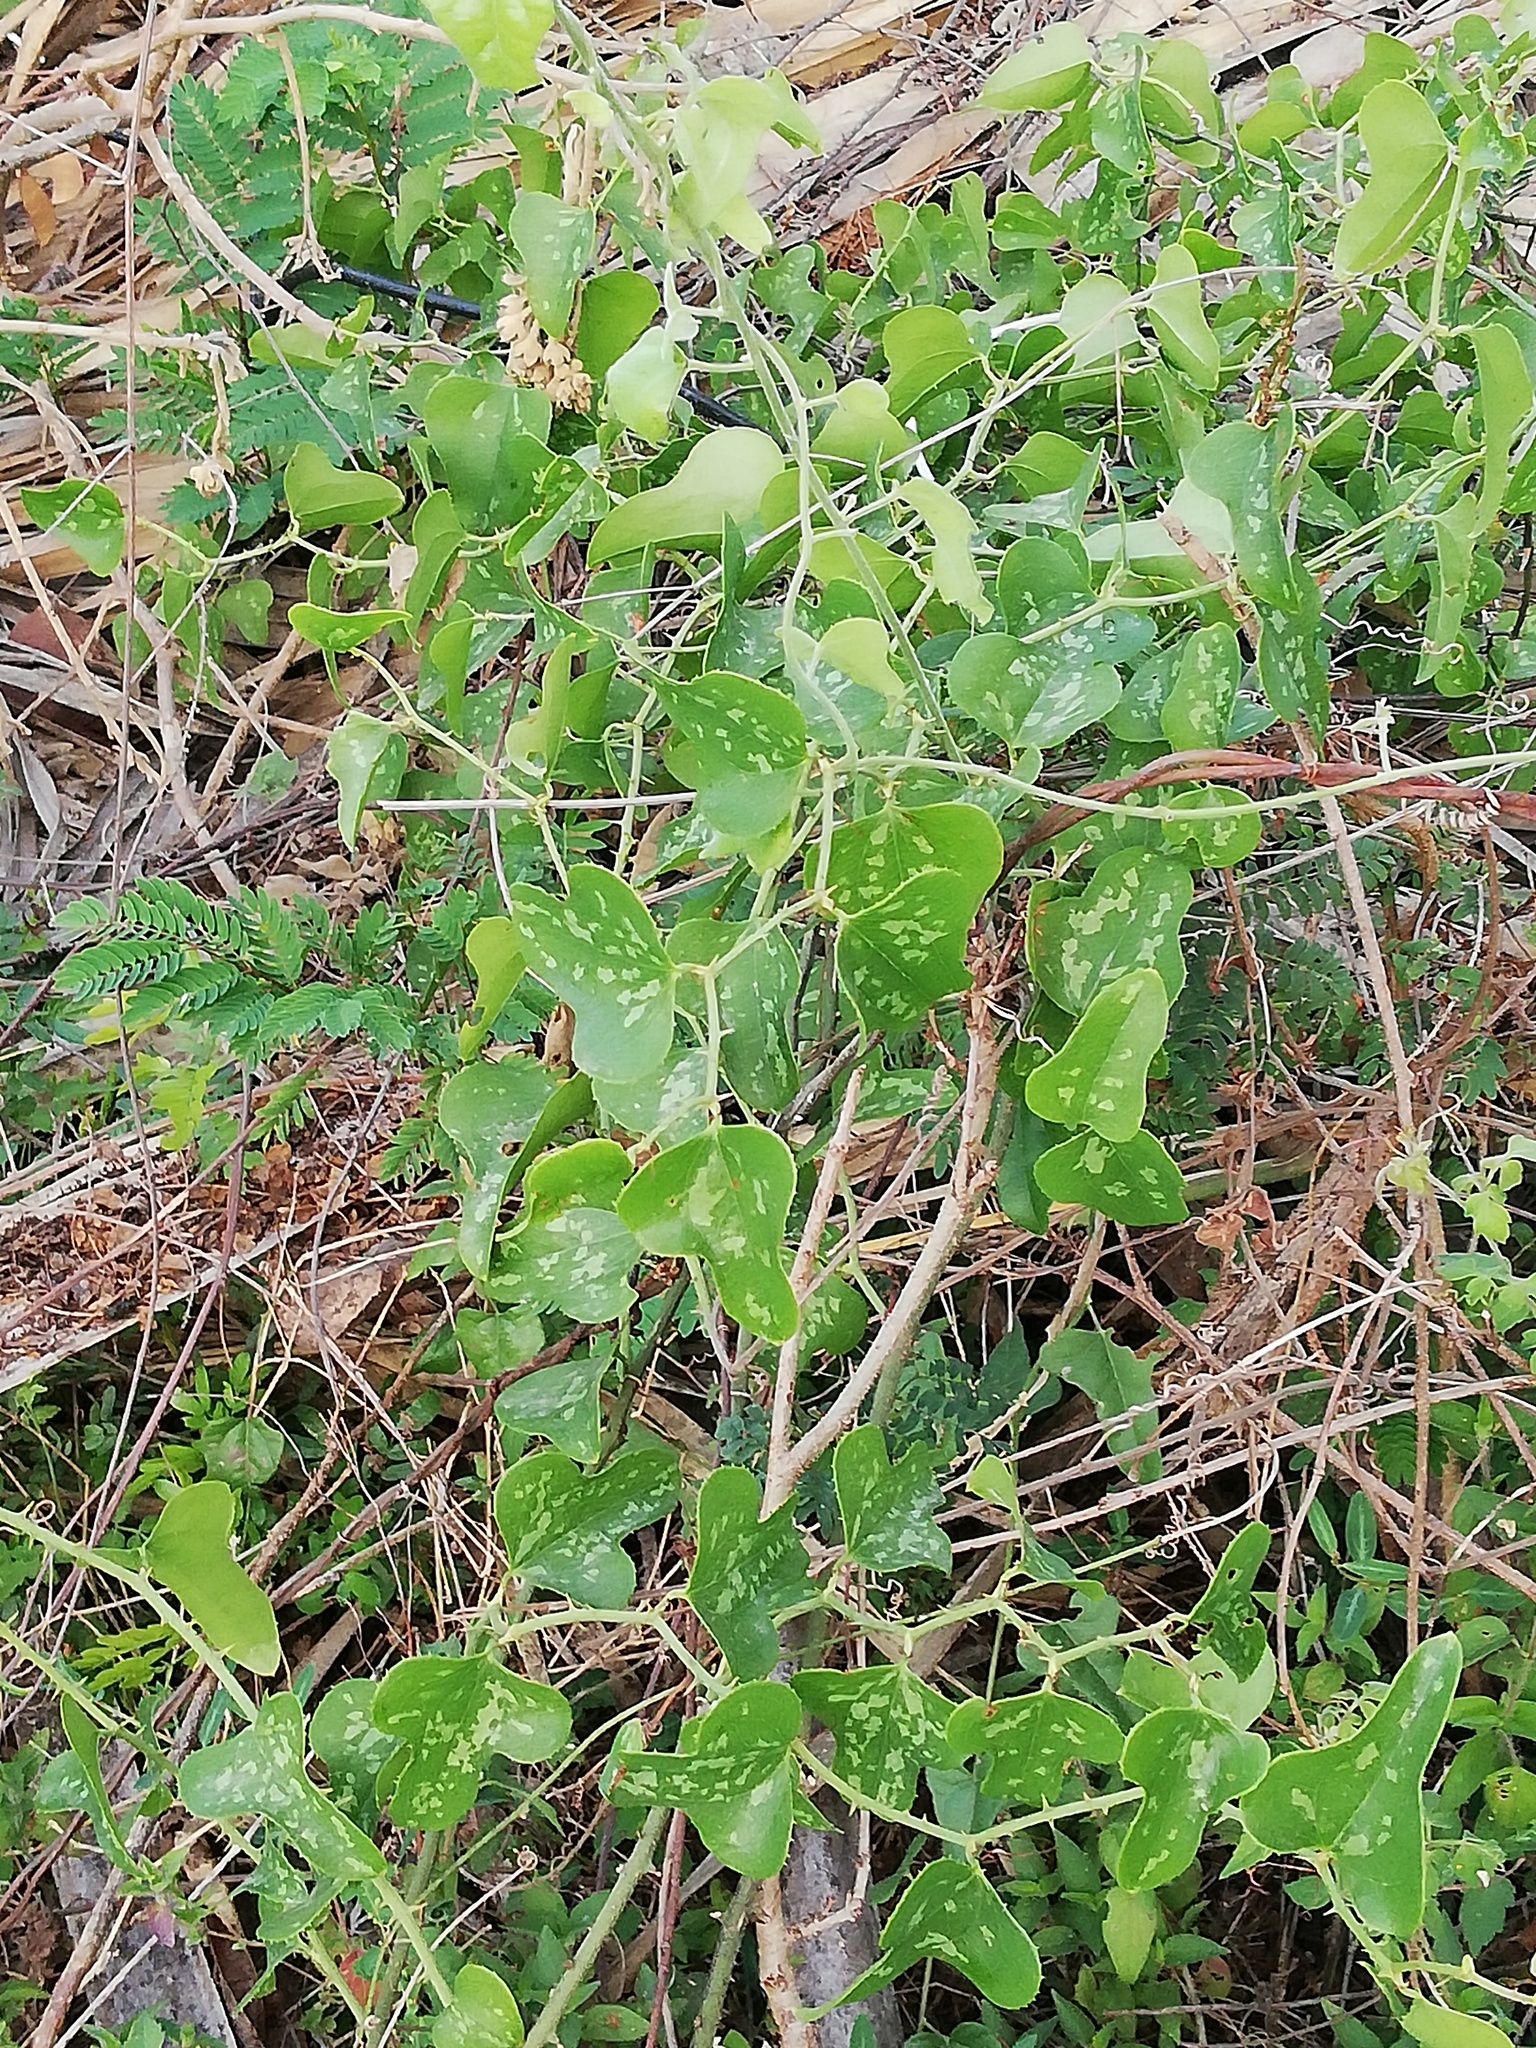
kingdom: Plantae
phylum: Tracheophyta
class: Liliopsida
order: Liliales
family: Smilacaceae
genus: Smilax
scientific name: Smilax bona-nox
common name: Catbrier
